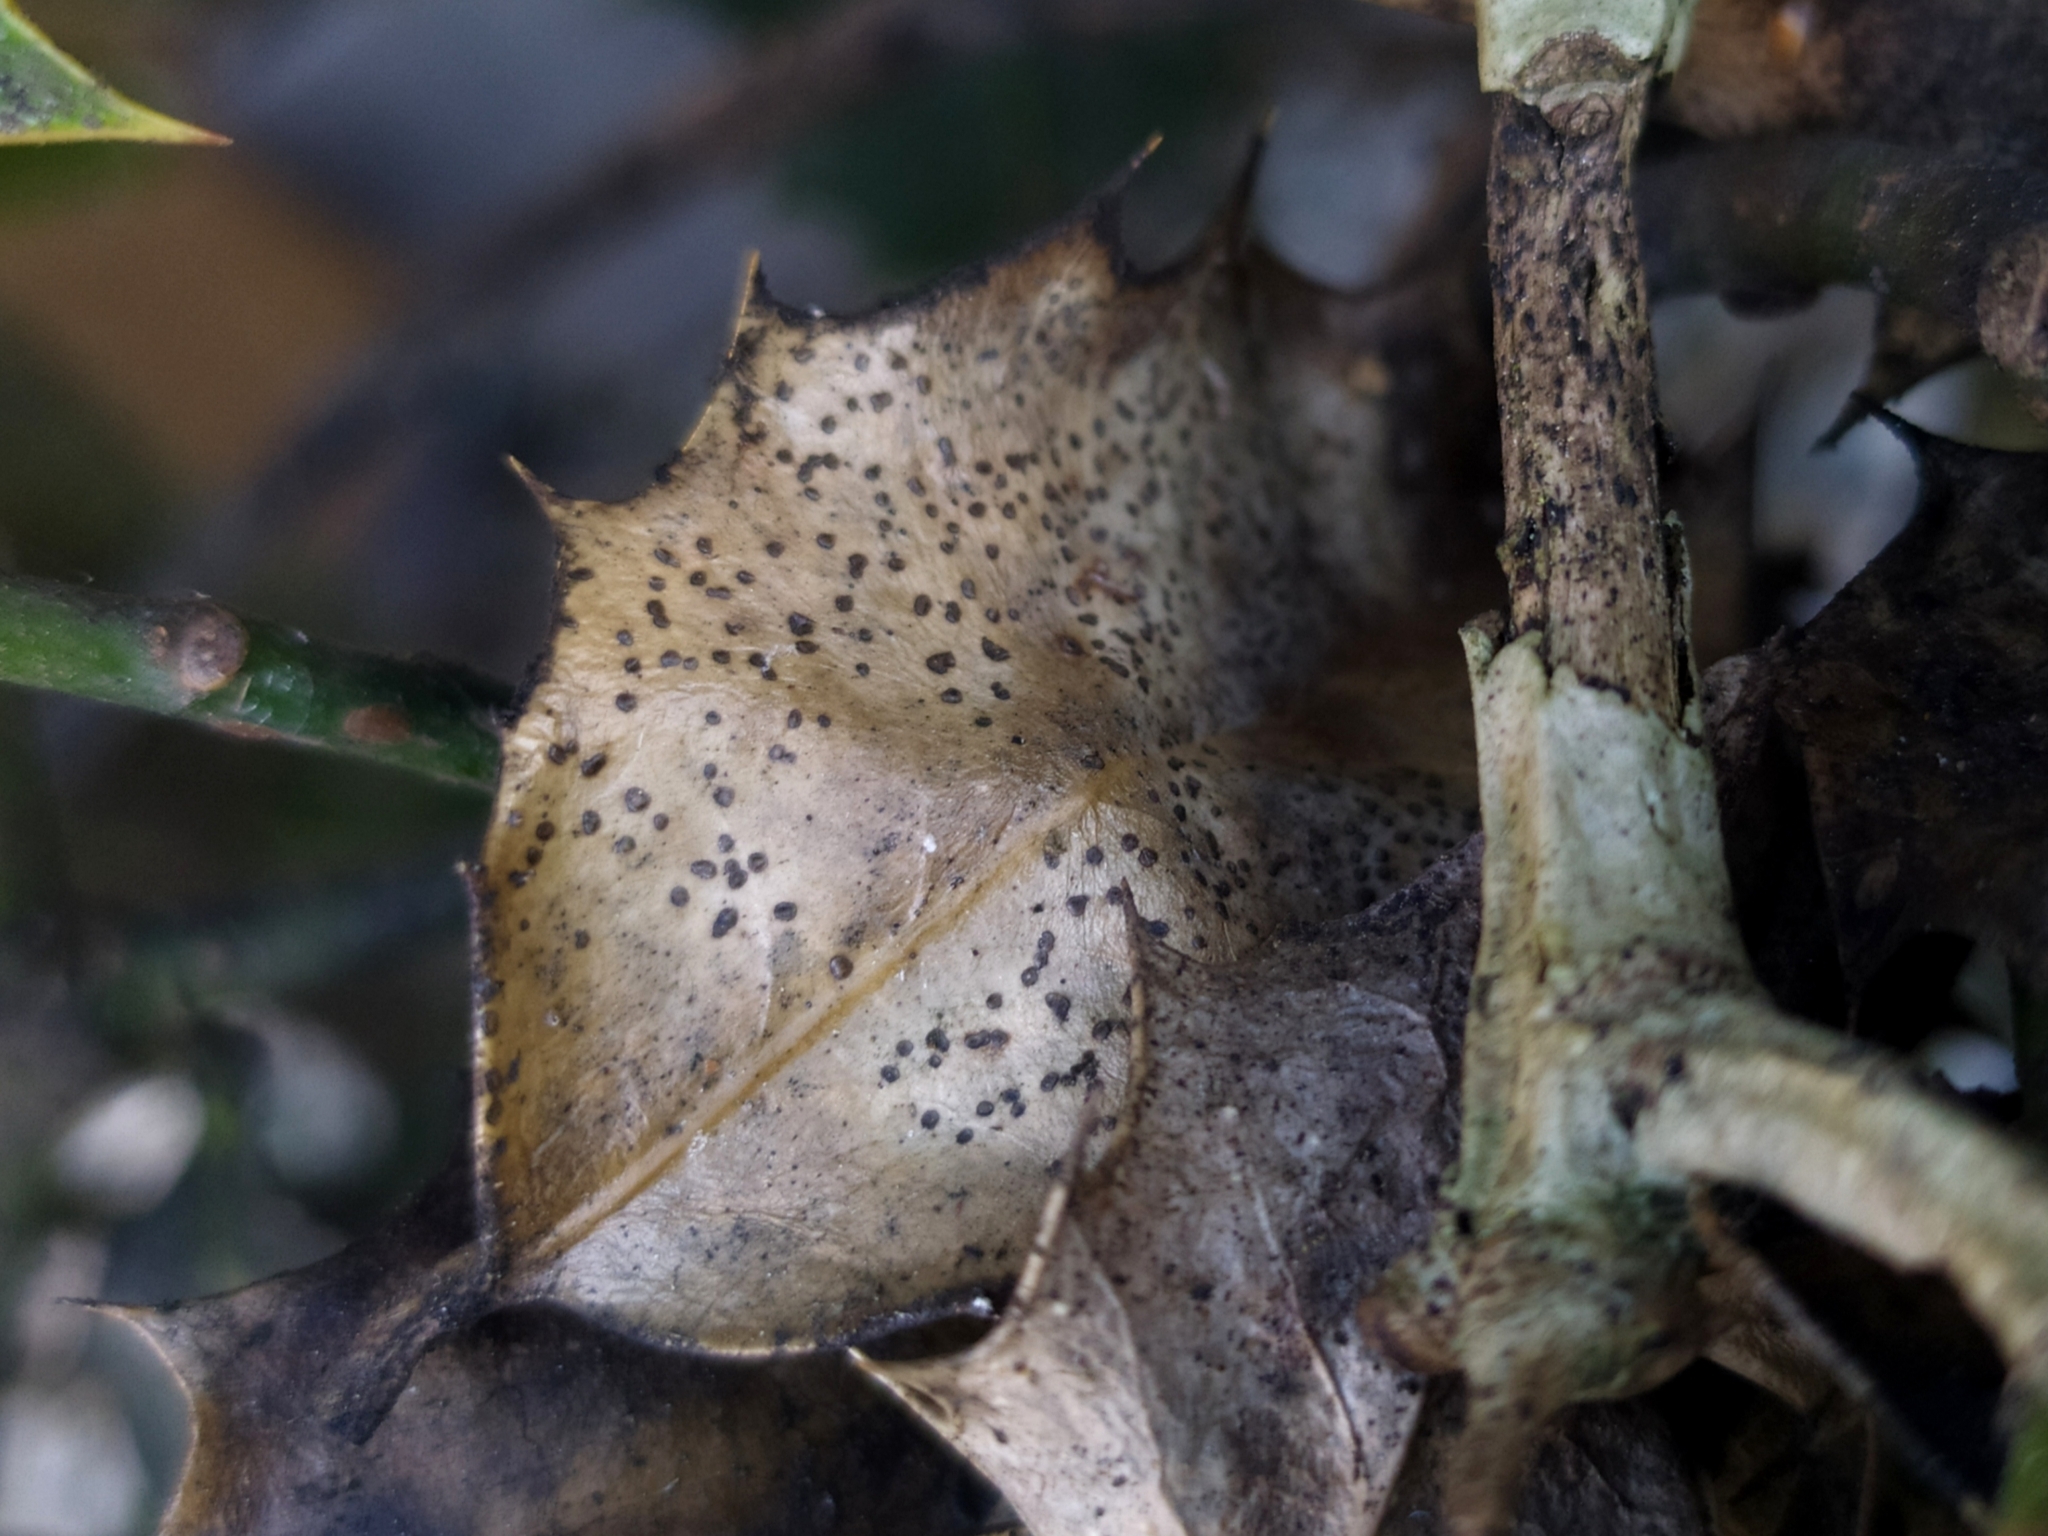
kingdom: Fungi
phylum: Ascomycota
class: Leotiomycetes
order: Phacidiales
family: Phacidiaceae
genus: Phacidium
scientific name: Phacidium lauri
